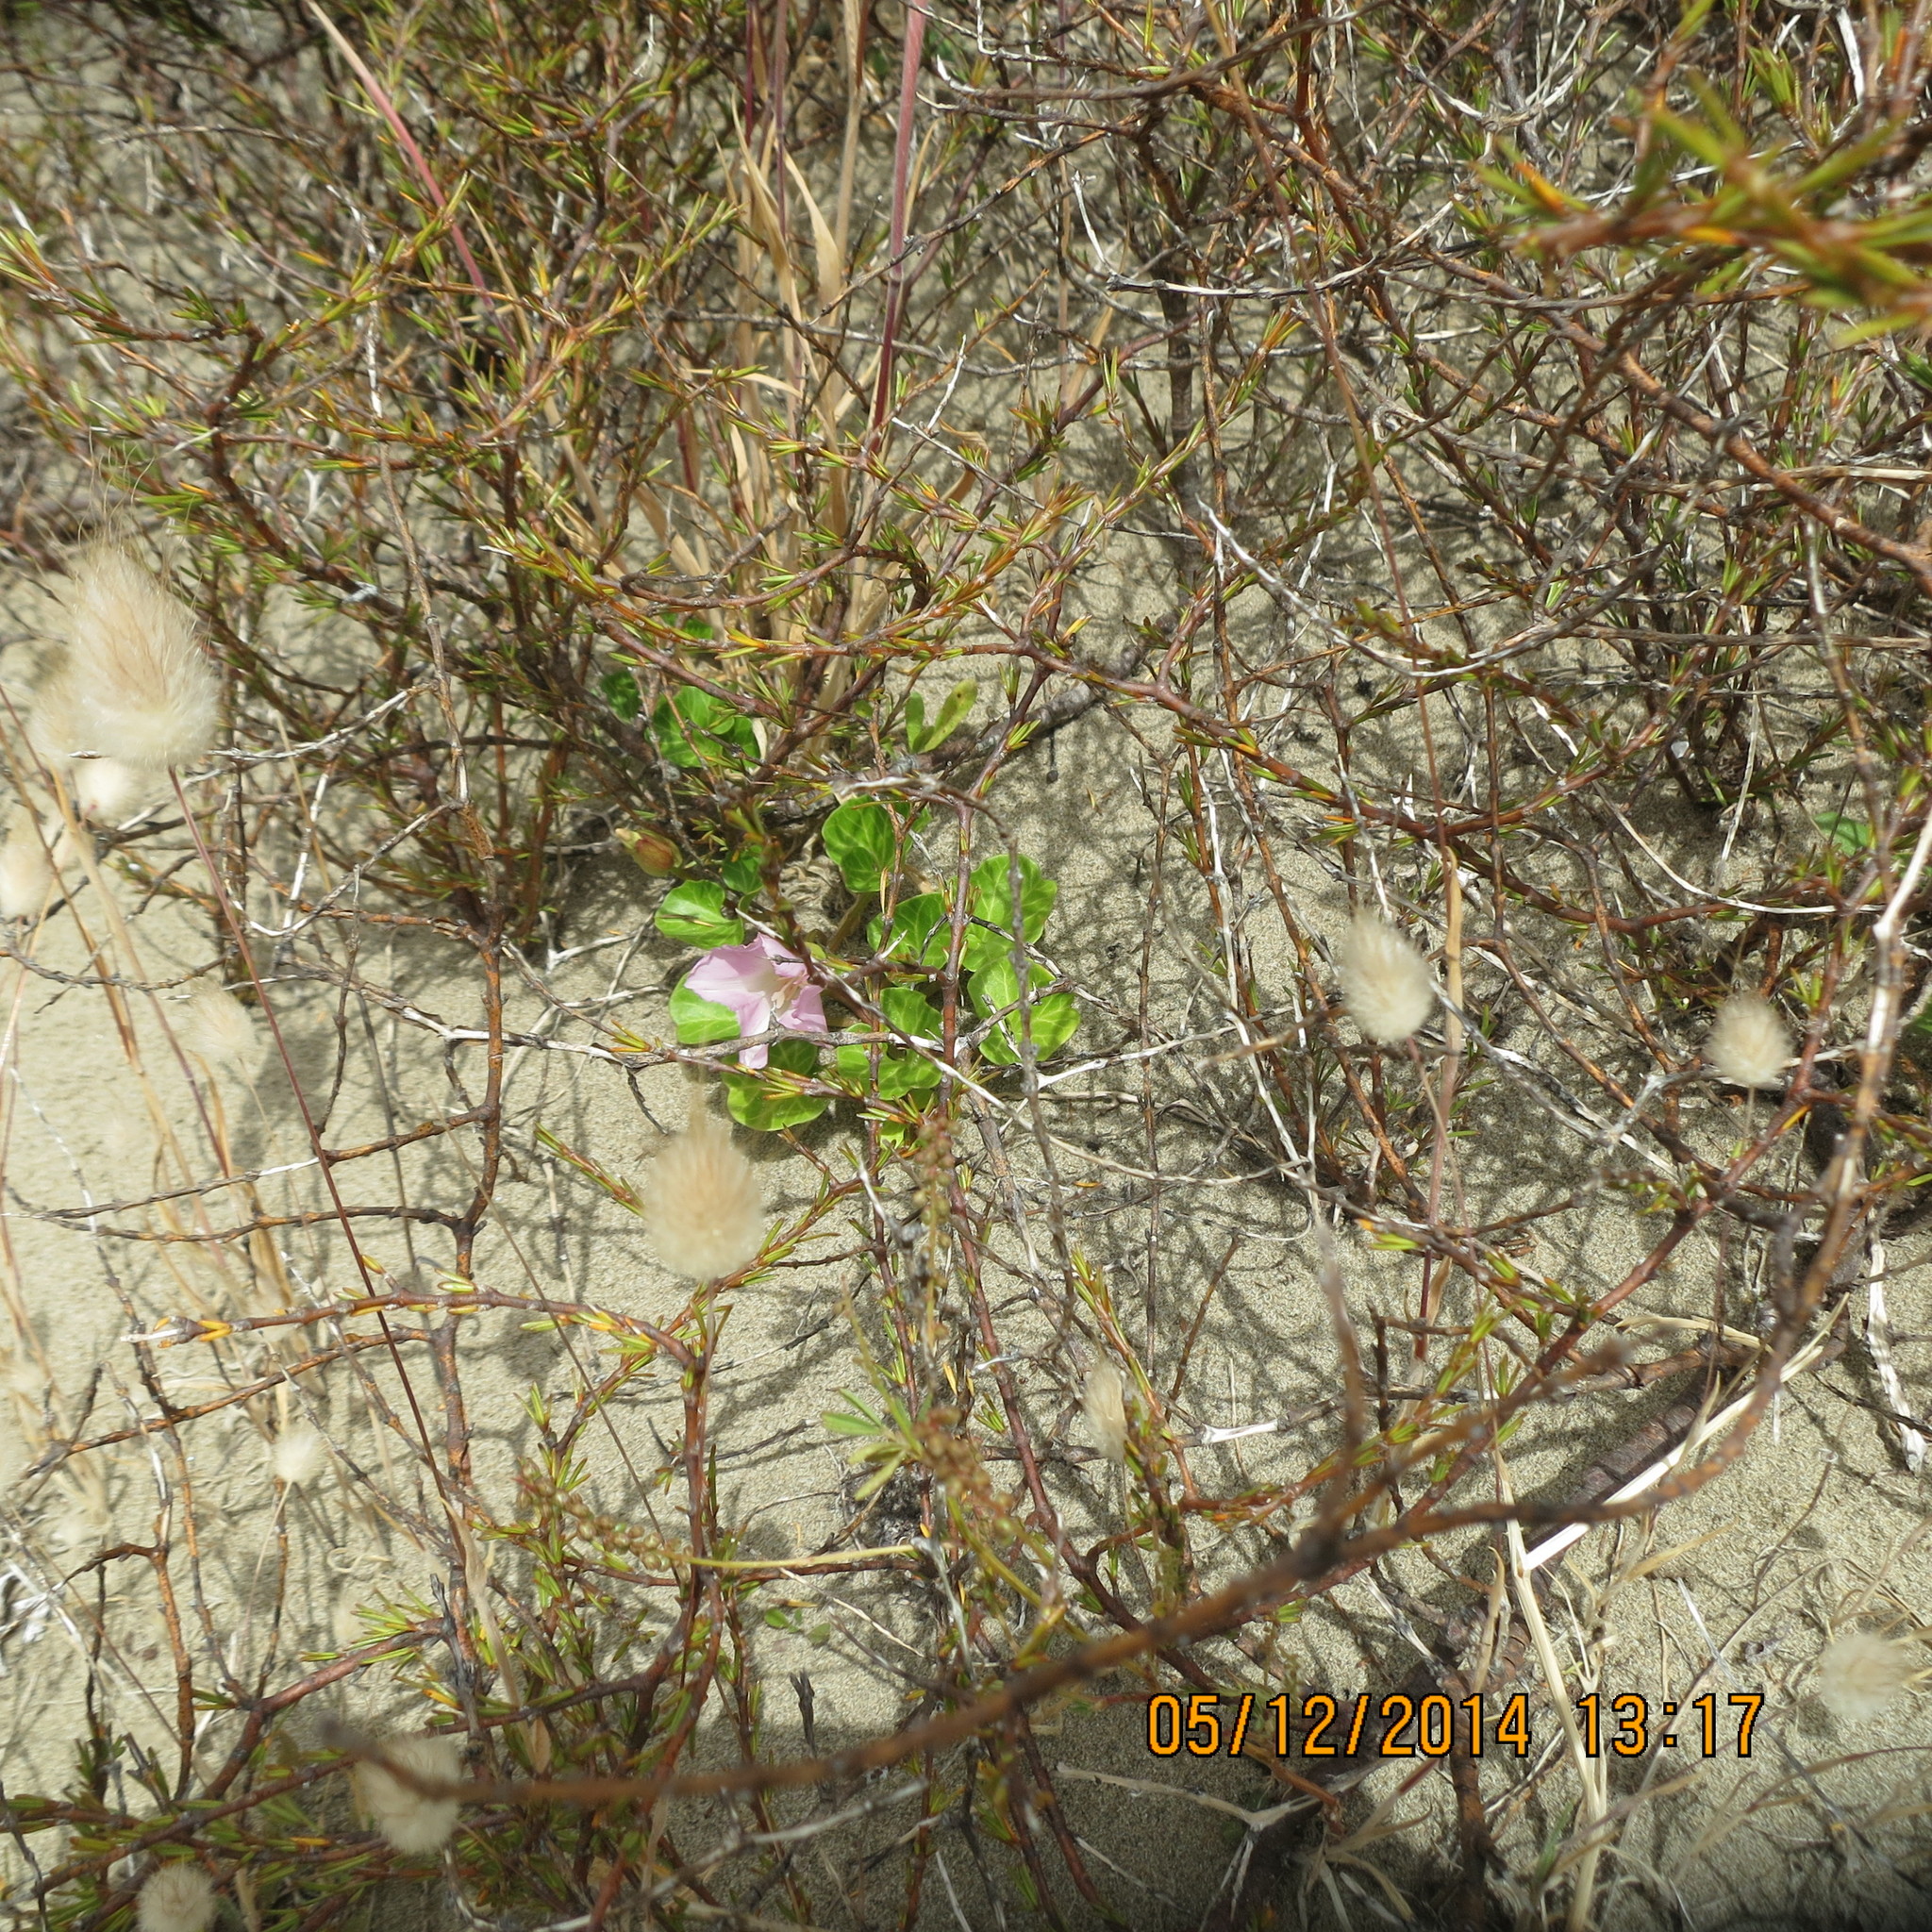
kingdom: Plantae
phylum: Tracheophyta
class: Magnoliopsida
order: Solanales
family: Convolvulaceae
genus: Calystegia
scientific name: Calystegia soldanella
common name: Sea bindweed
